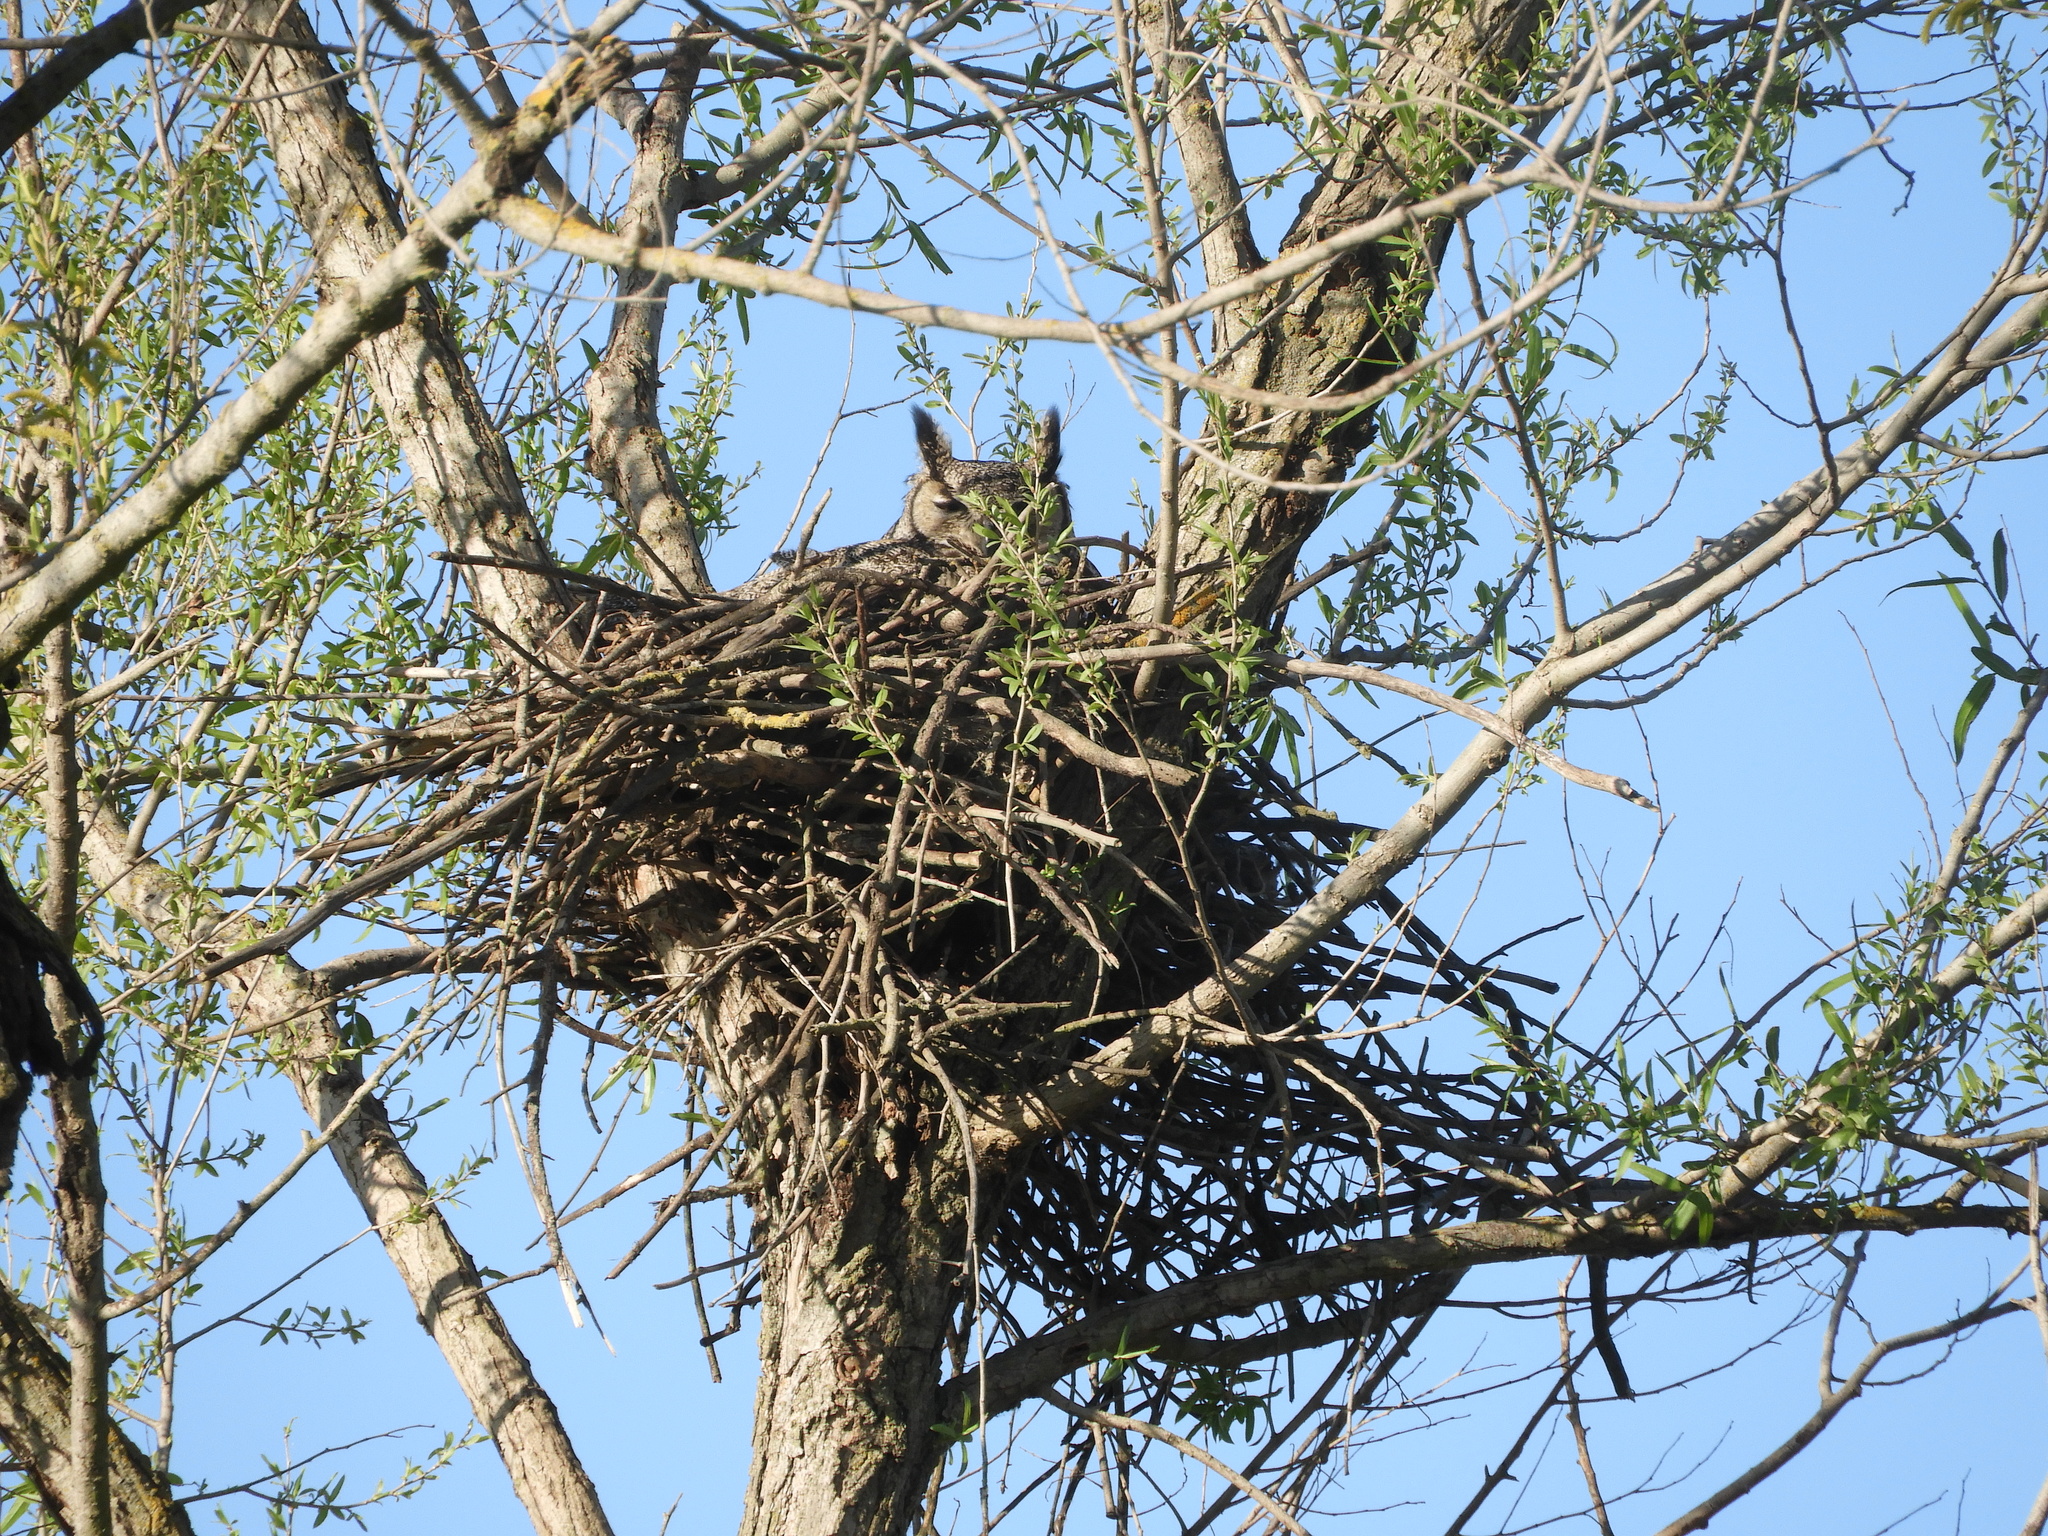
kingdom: Animalia
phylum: Chordata
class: Aves
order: Strigiformes
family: Strigidae
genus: Bubo
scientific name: Bubo virginianus
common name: Great horned owl
